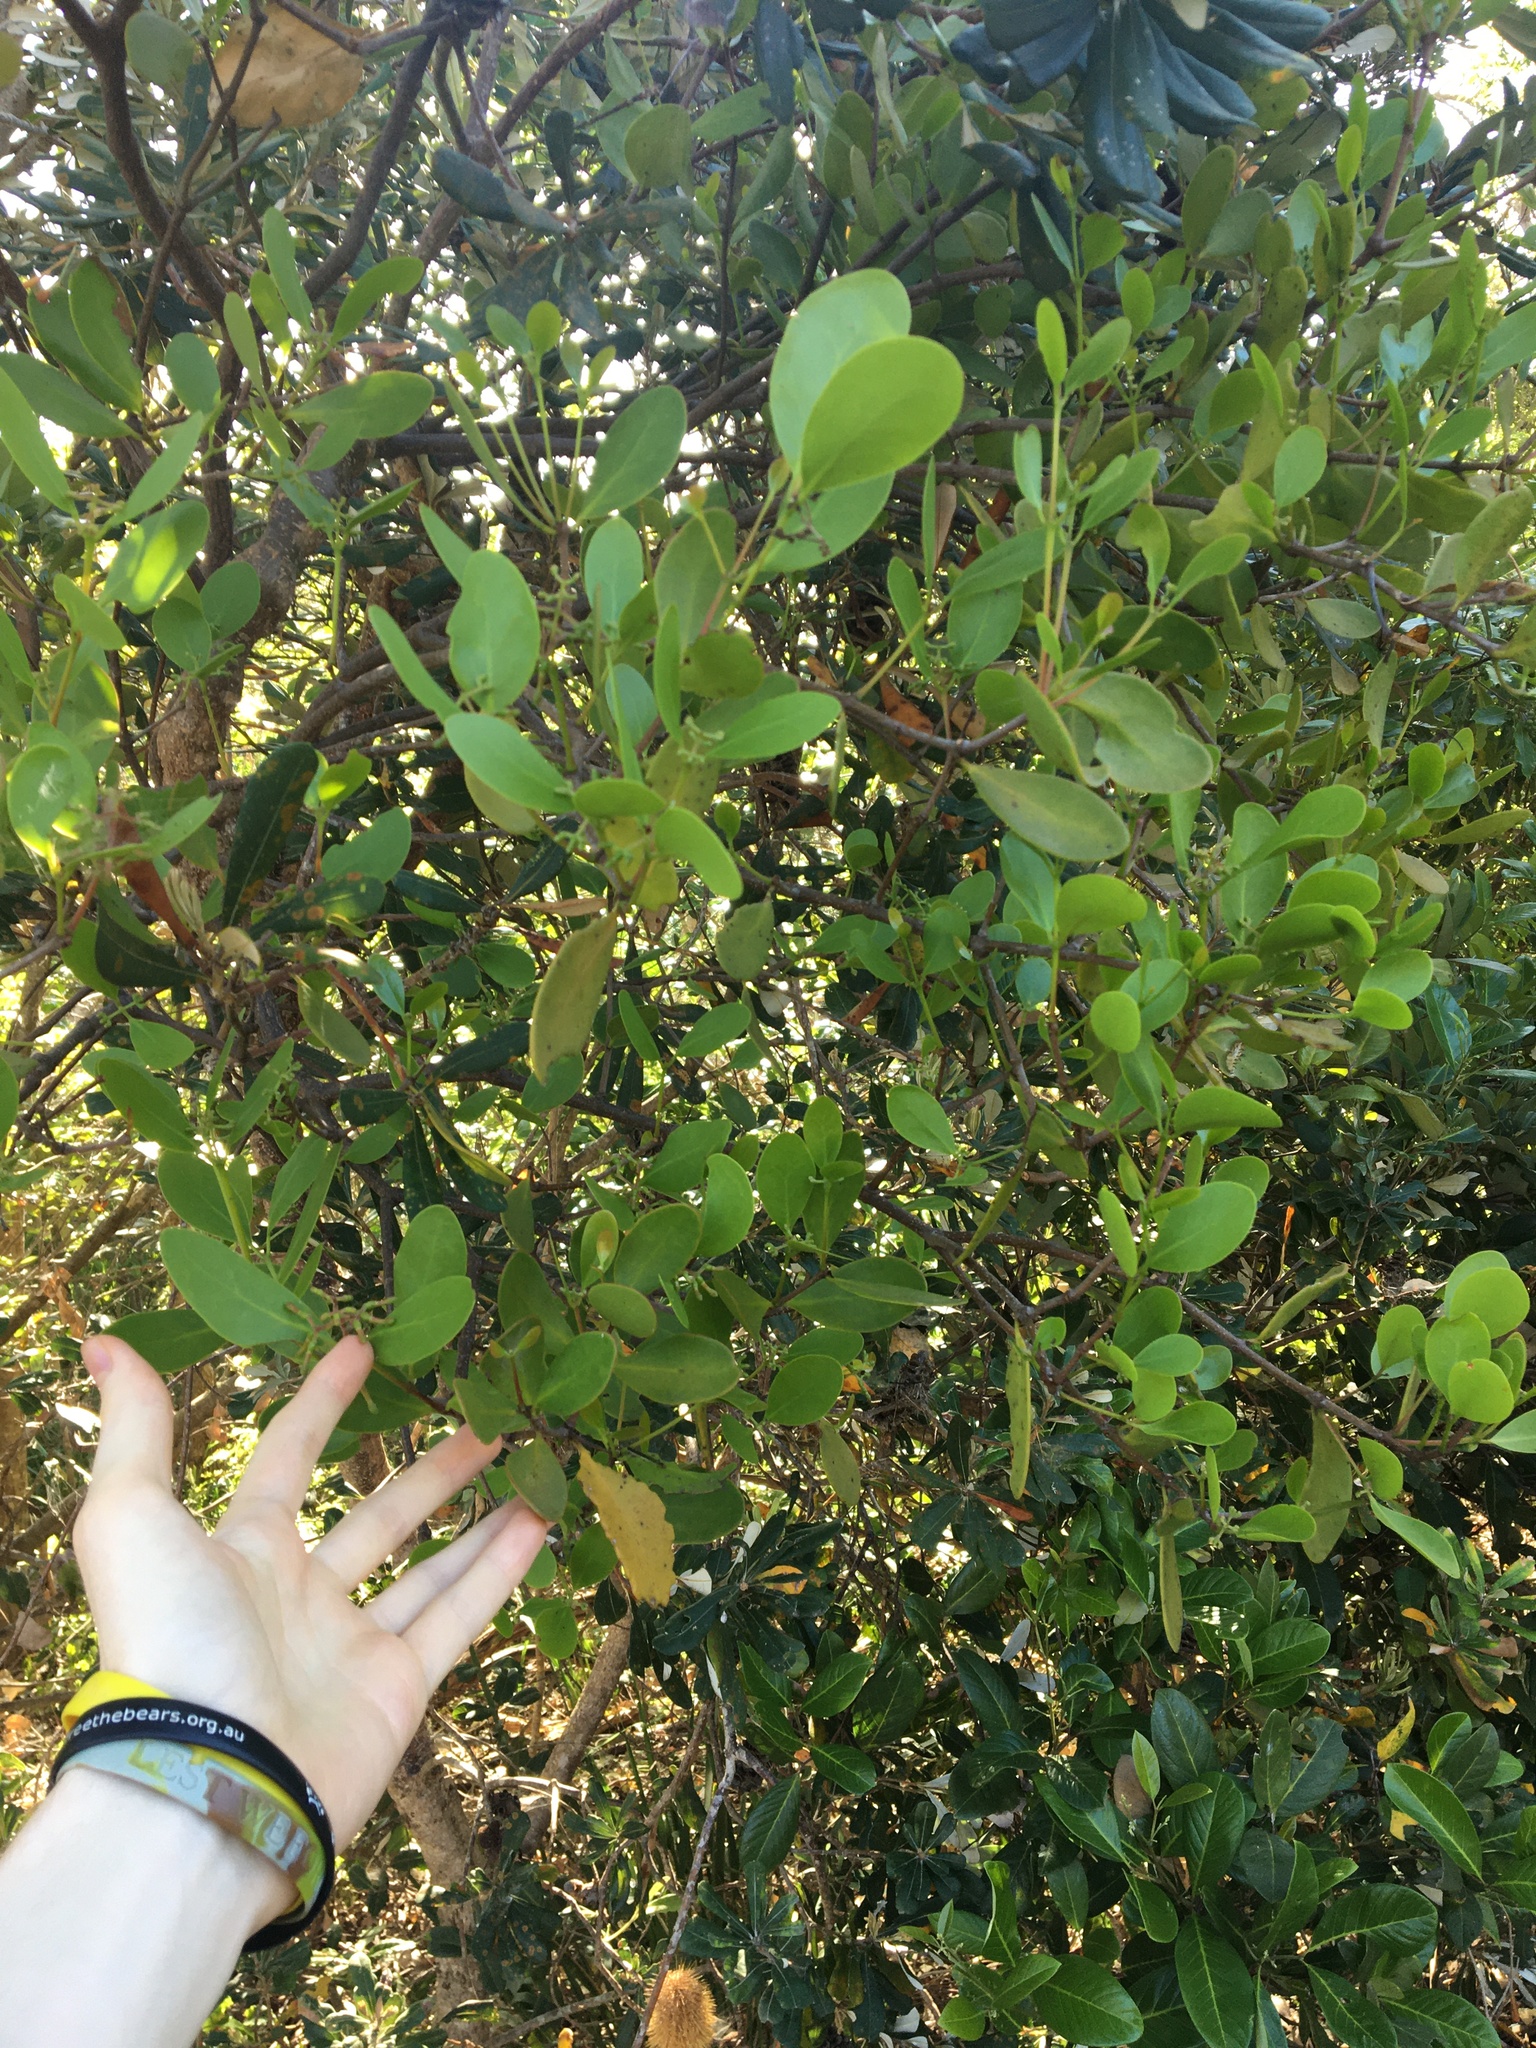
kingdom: Plantae
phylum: Tracheophyta
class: Magnoliopsida
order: Santalales
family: Loranthaceae
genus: Muellerina
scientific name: Muellerina celastroides
